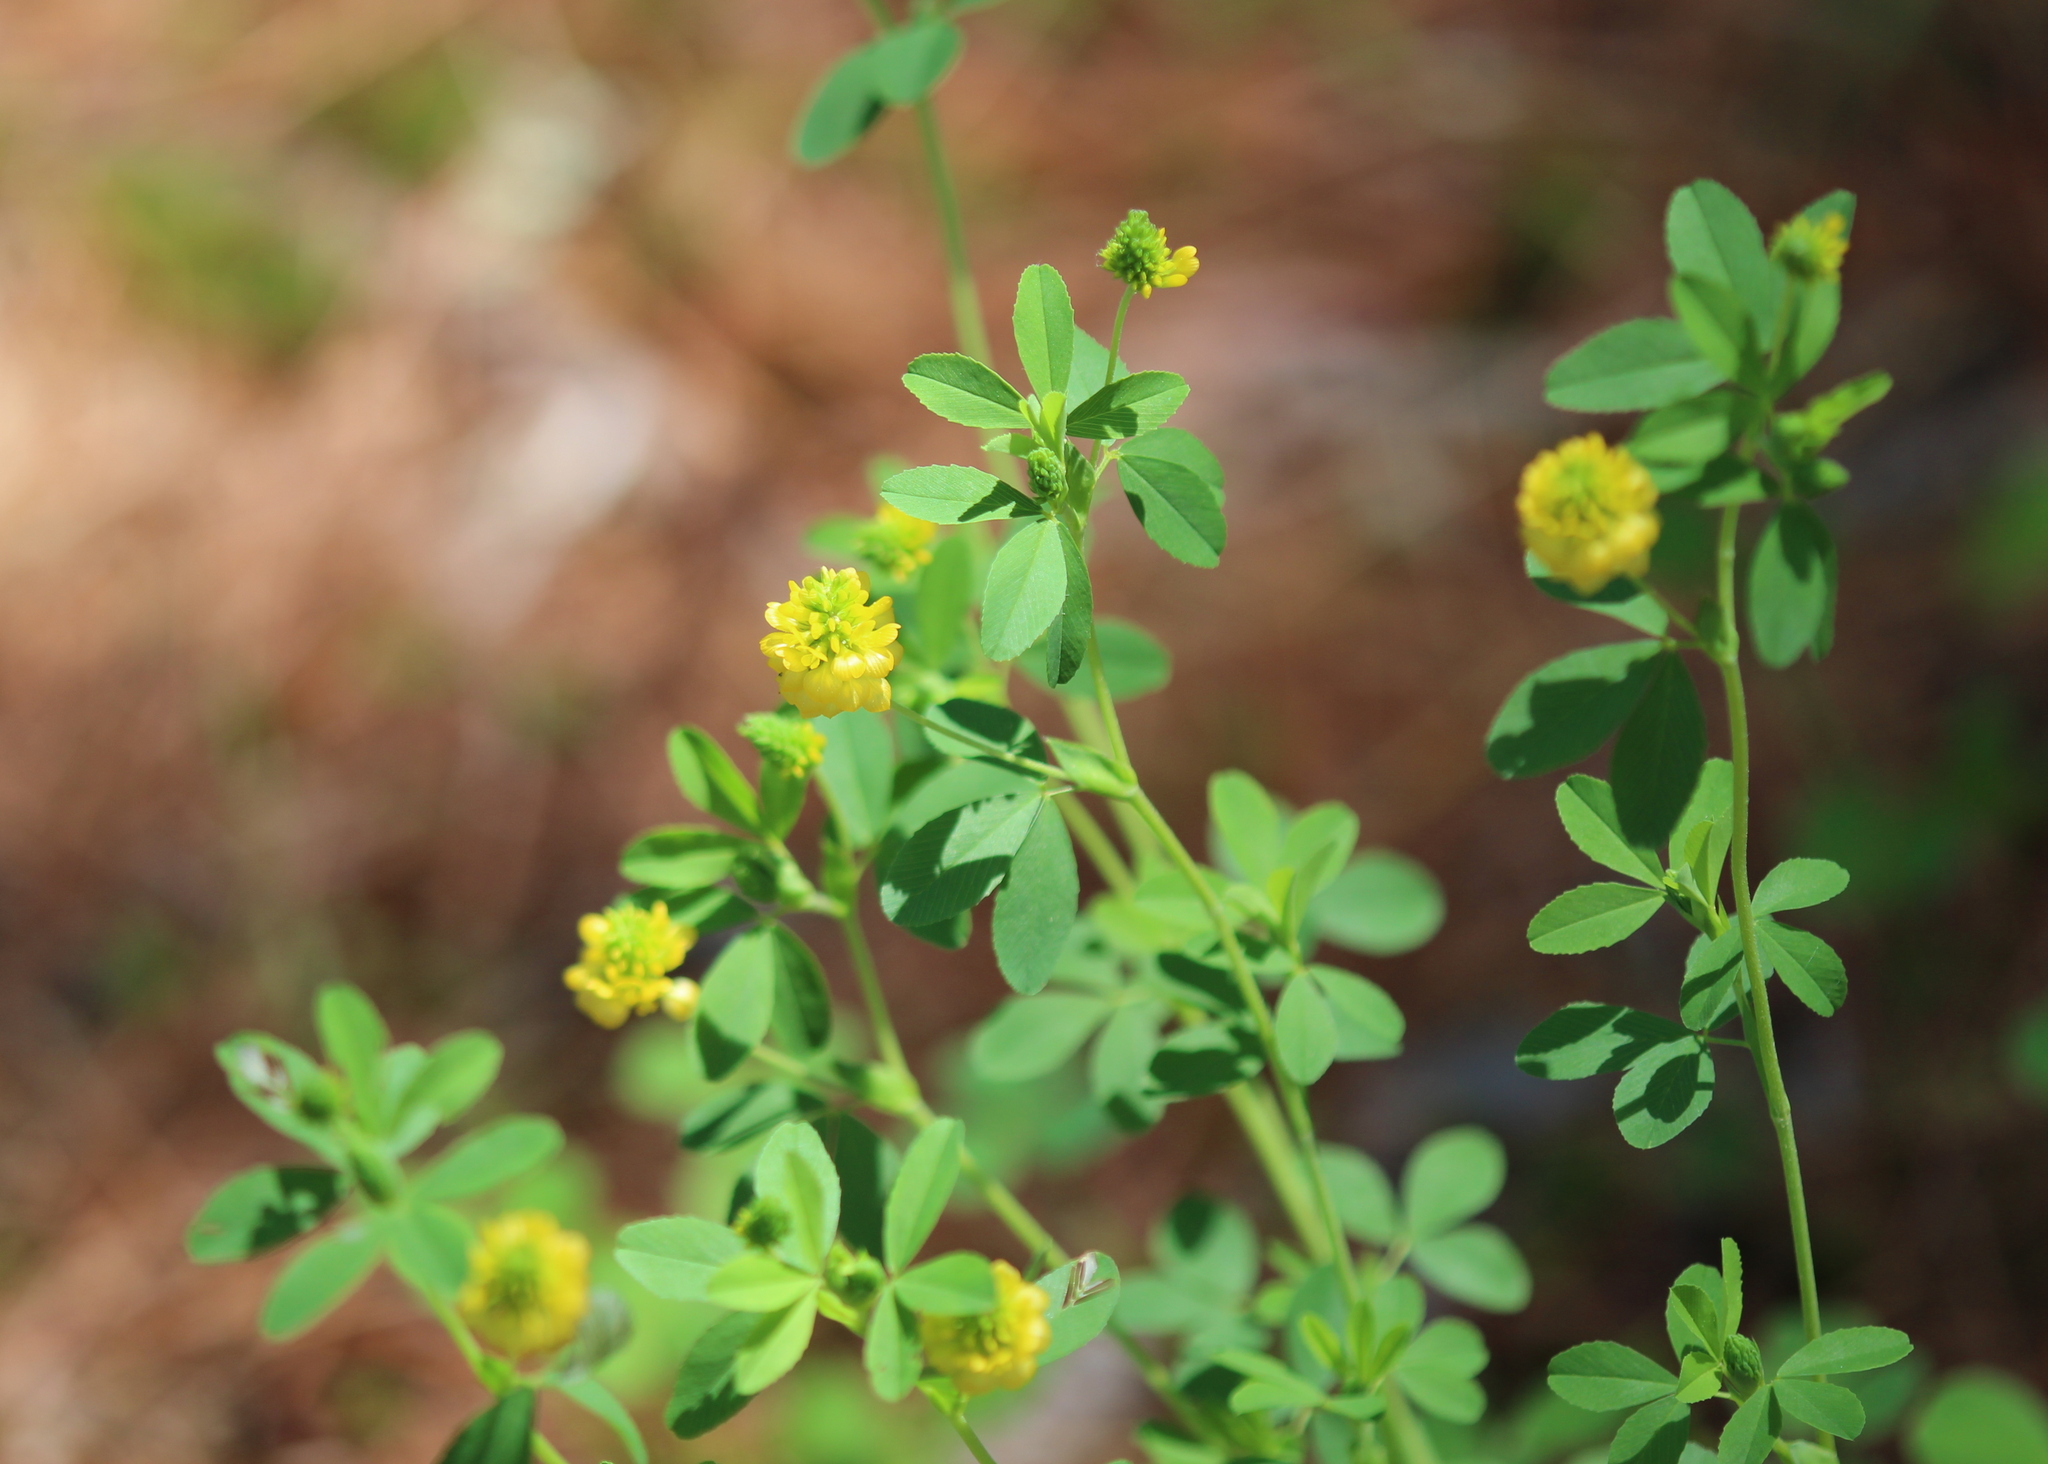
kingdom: Plantae
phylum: Tracheophyta
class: Magnoliopsida
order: Fabales
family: Fabaceae
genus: Trifolium
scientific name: Trifolium aureum
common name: Golden clover
